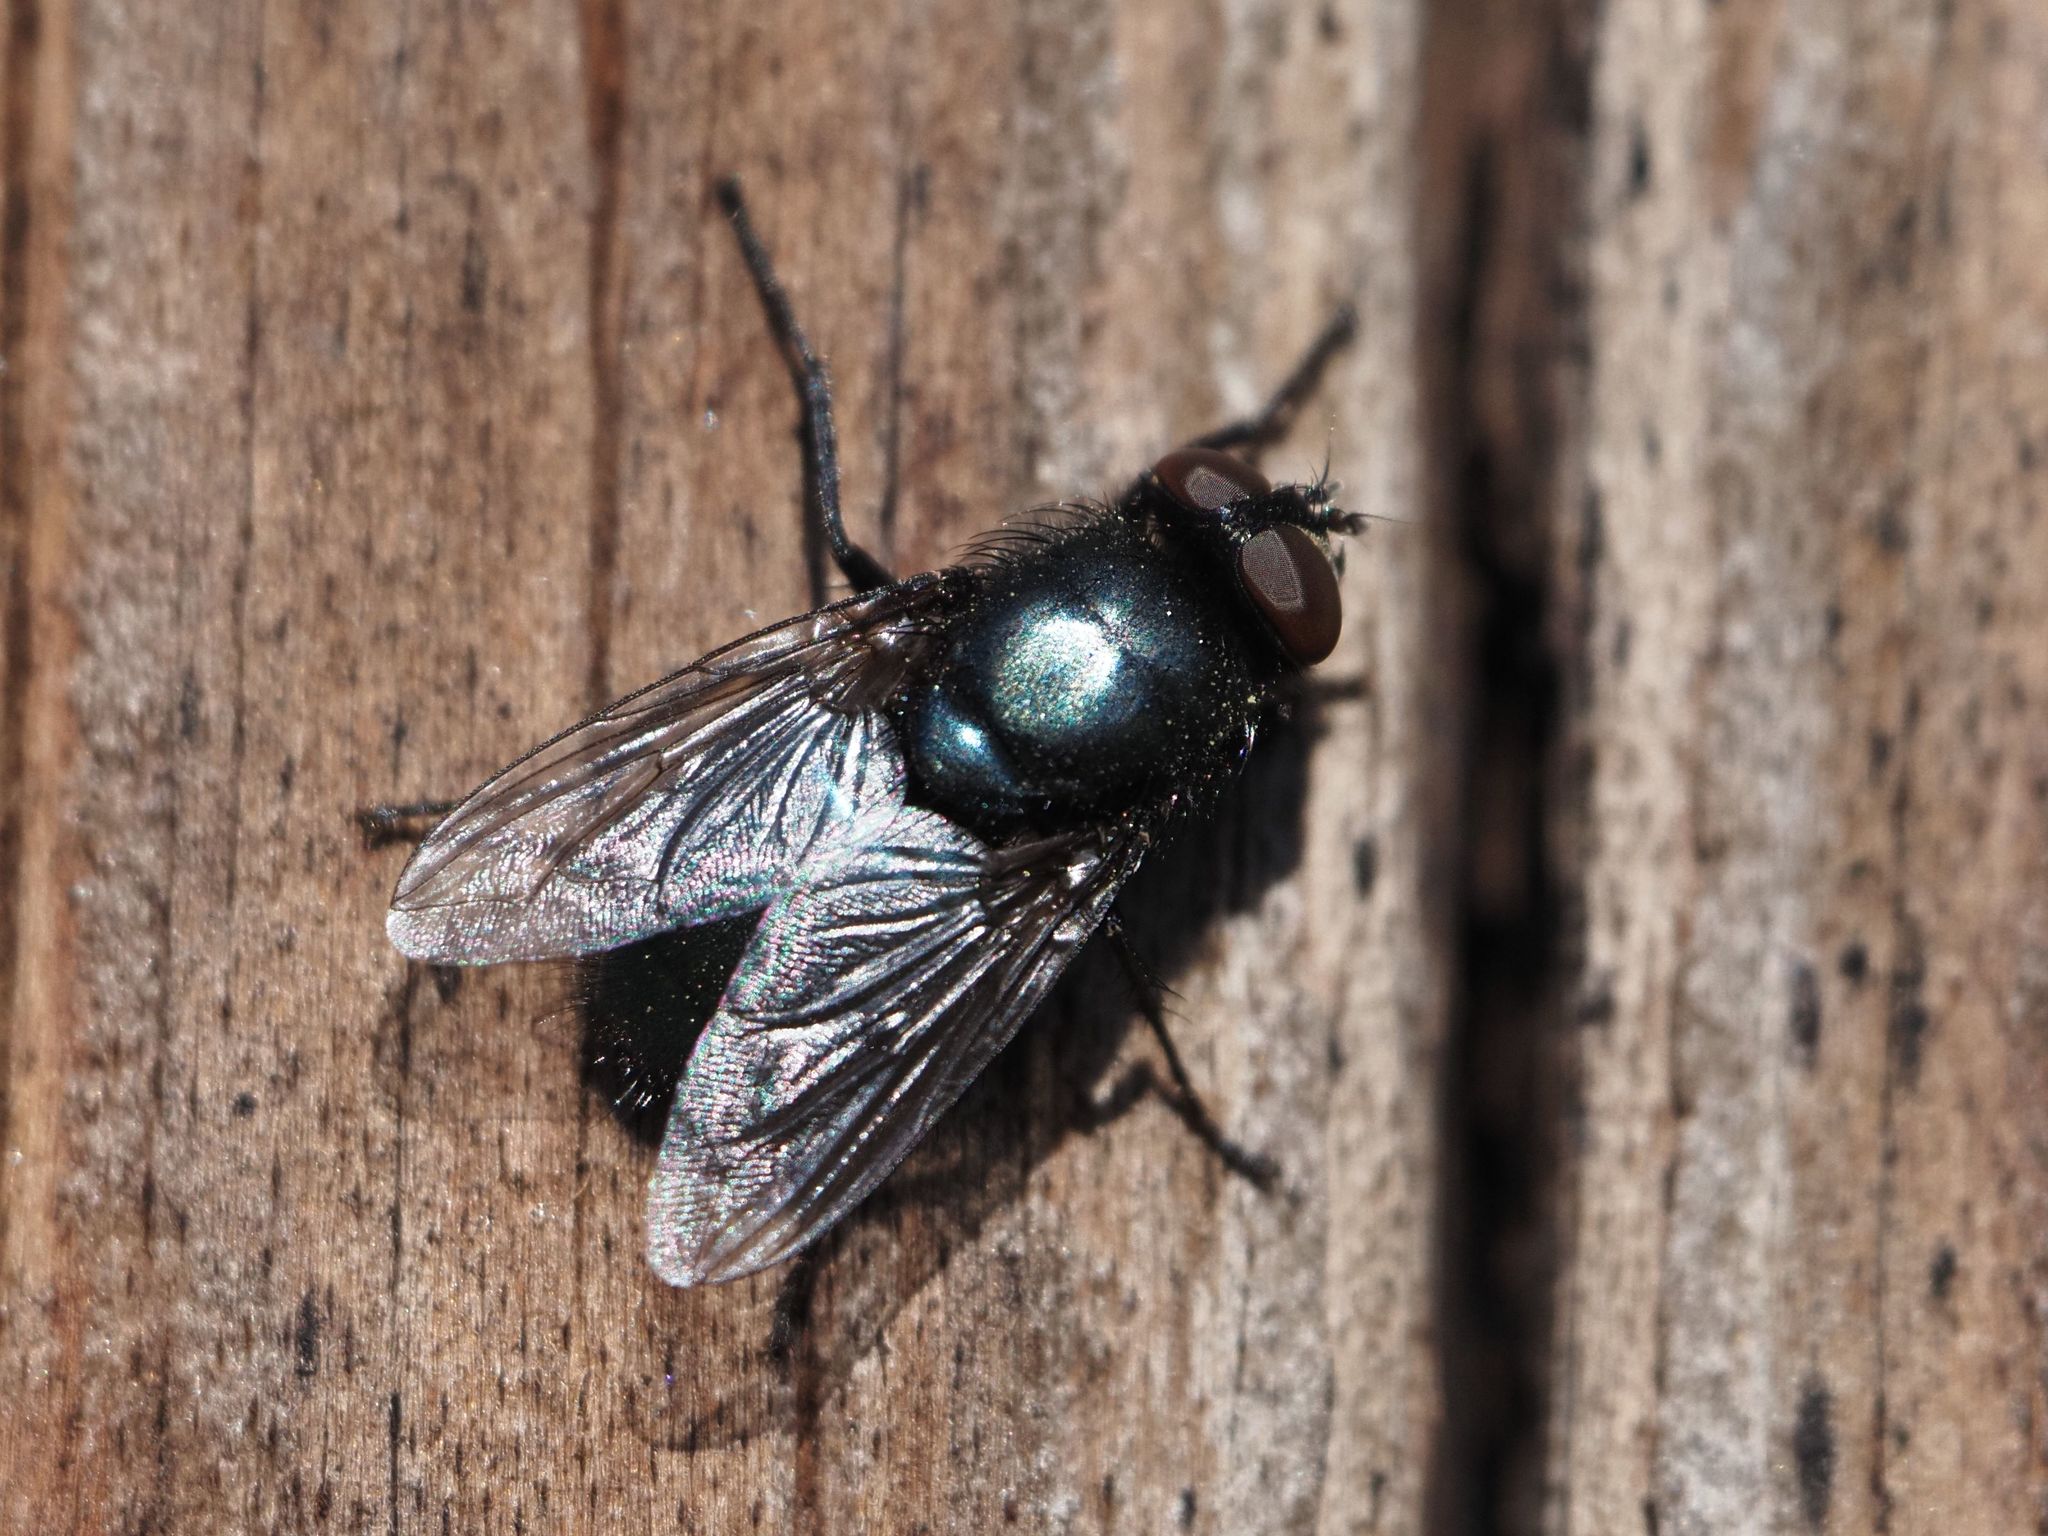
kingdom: Animalia
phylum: Arthropoda
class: Insecta
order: Diptera
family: Calliphoridae
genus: Protophormia
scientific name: Protophormia terraenovae
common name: Blackbottle
